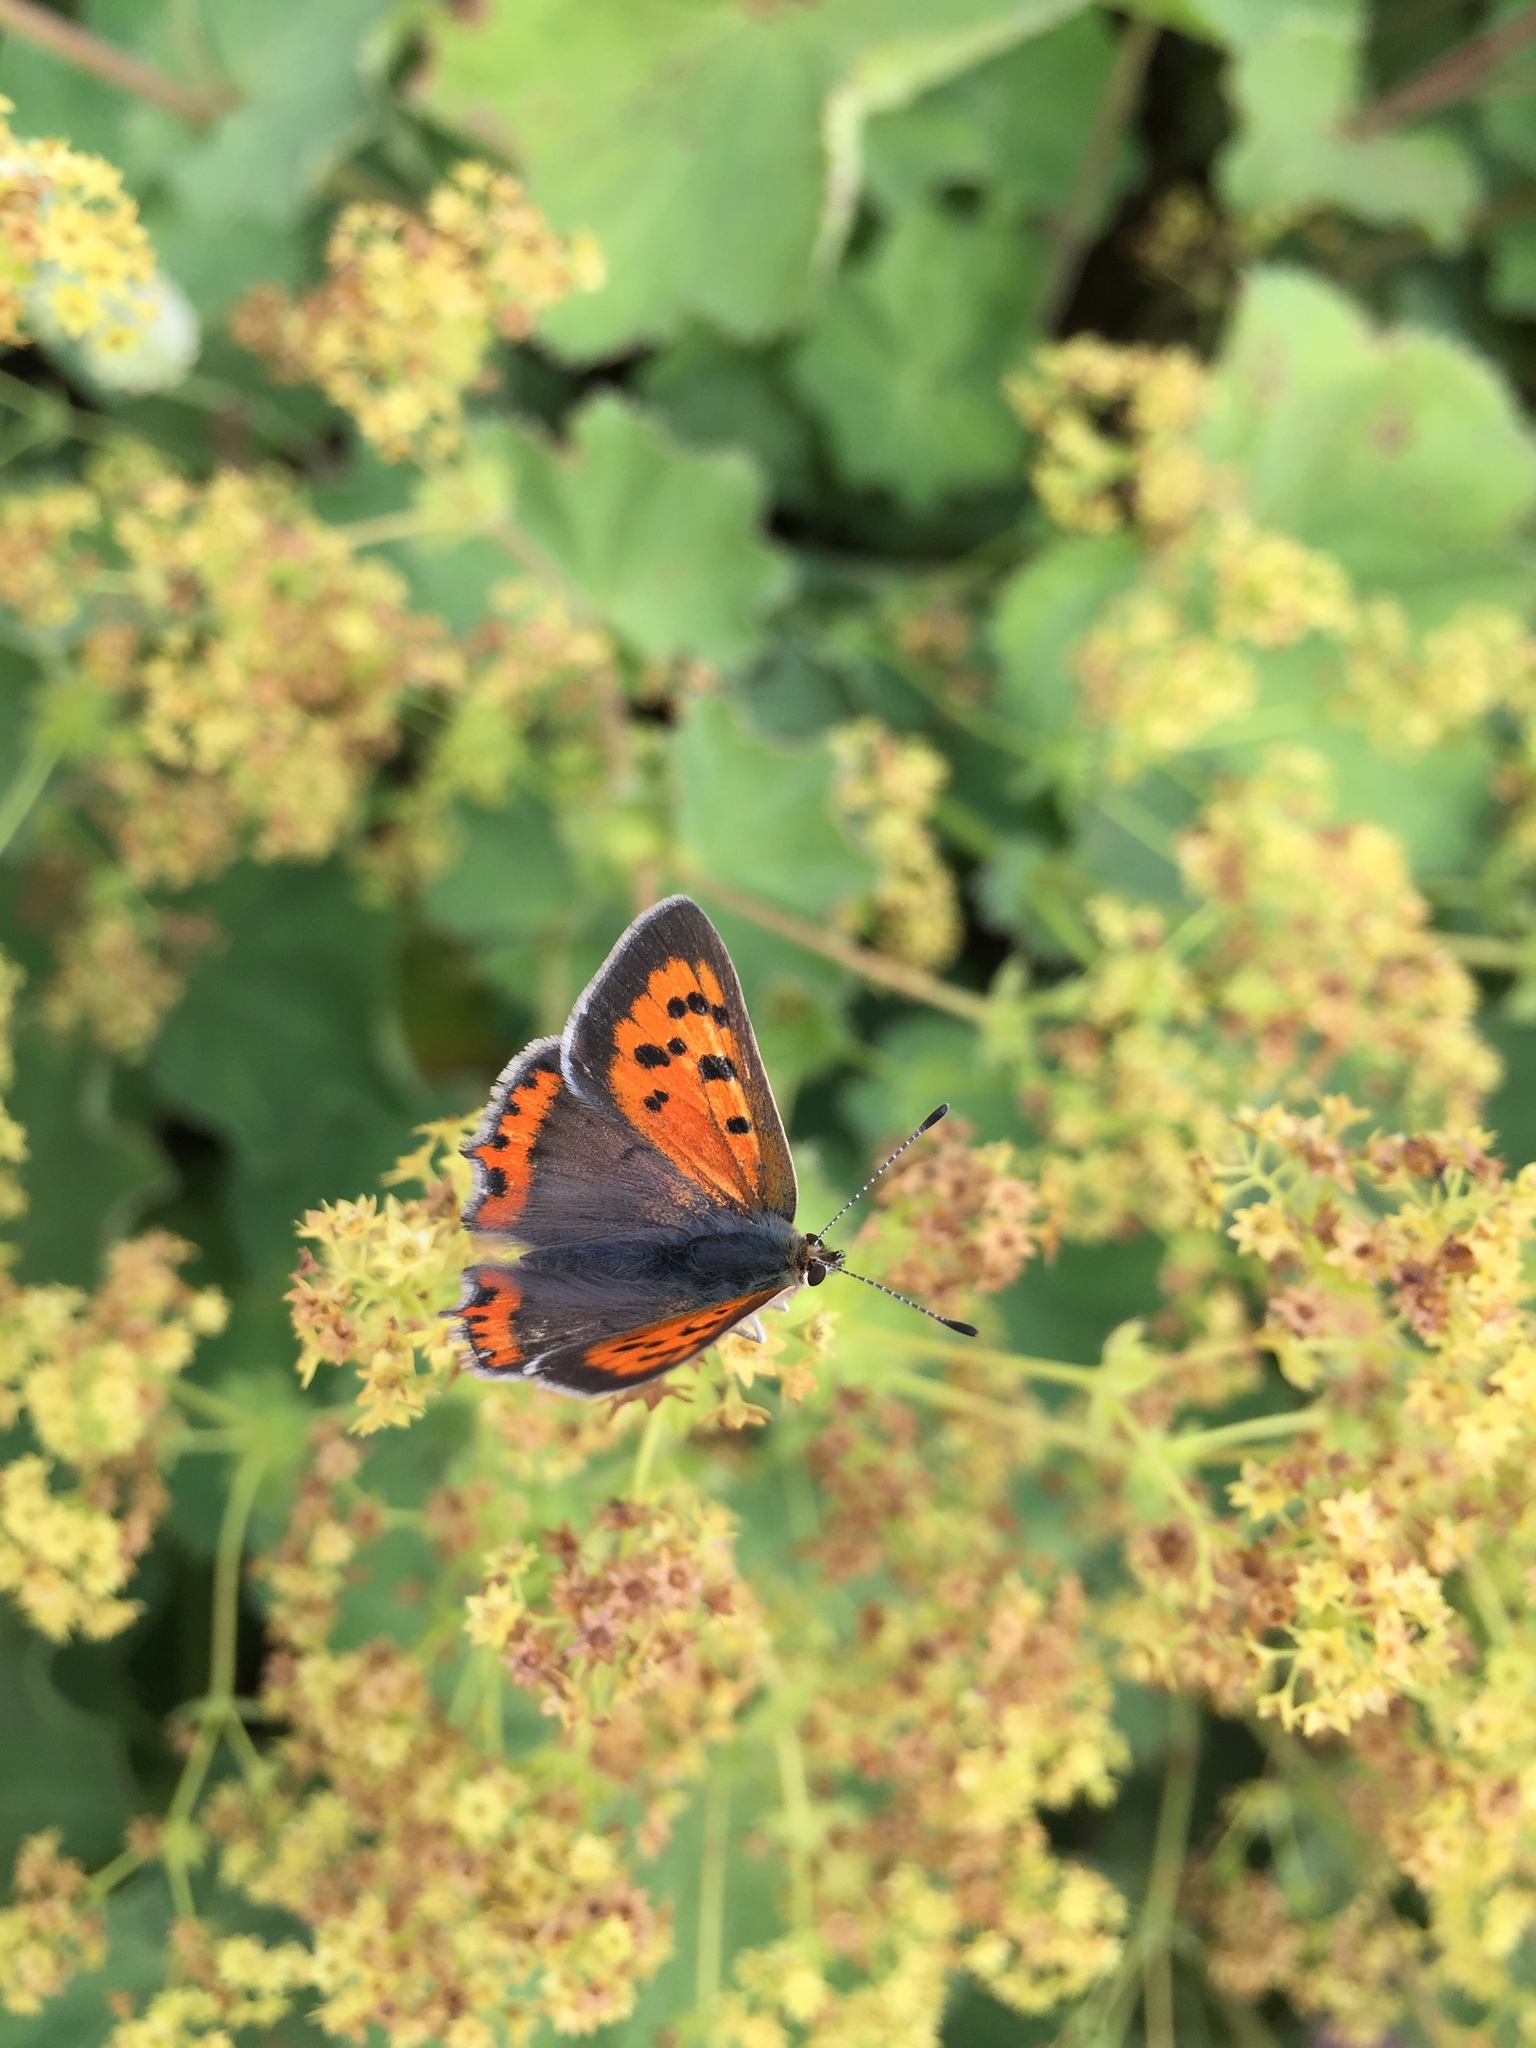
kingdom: Animalia
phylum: Arthropoda
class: Insecta
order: Lepidoptera
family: Lycaenidae
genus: Lycaena
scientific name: Lycaena phlaeas
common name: Small copper
